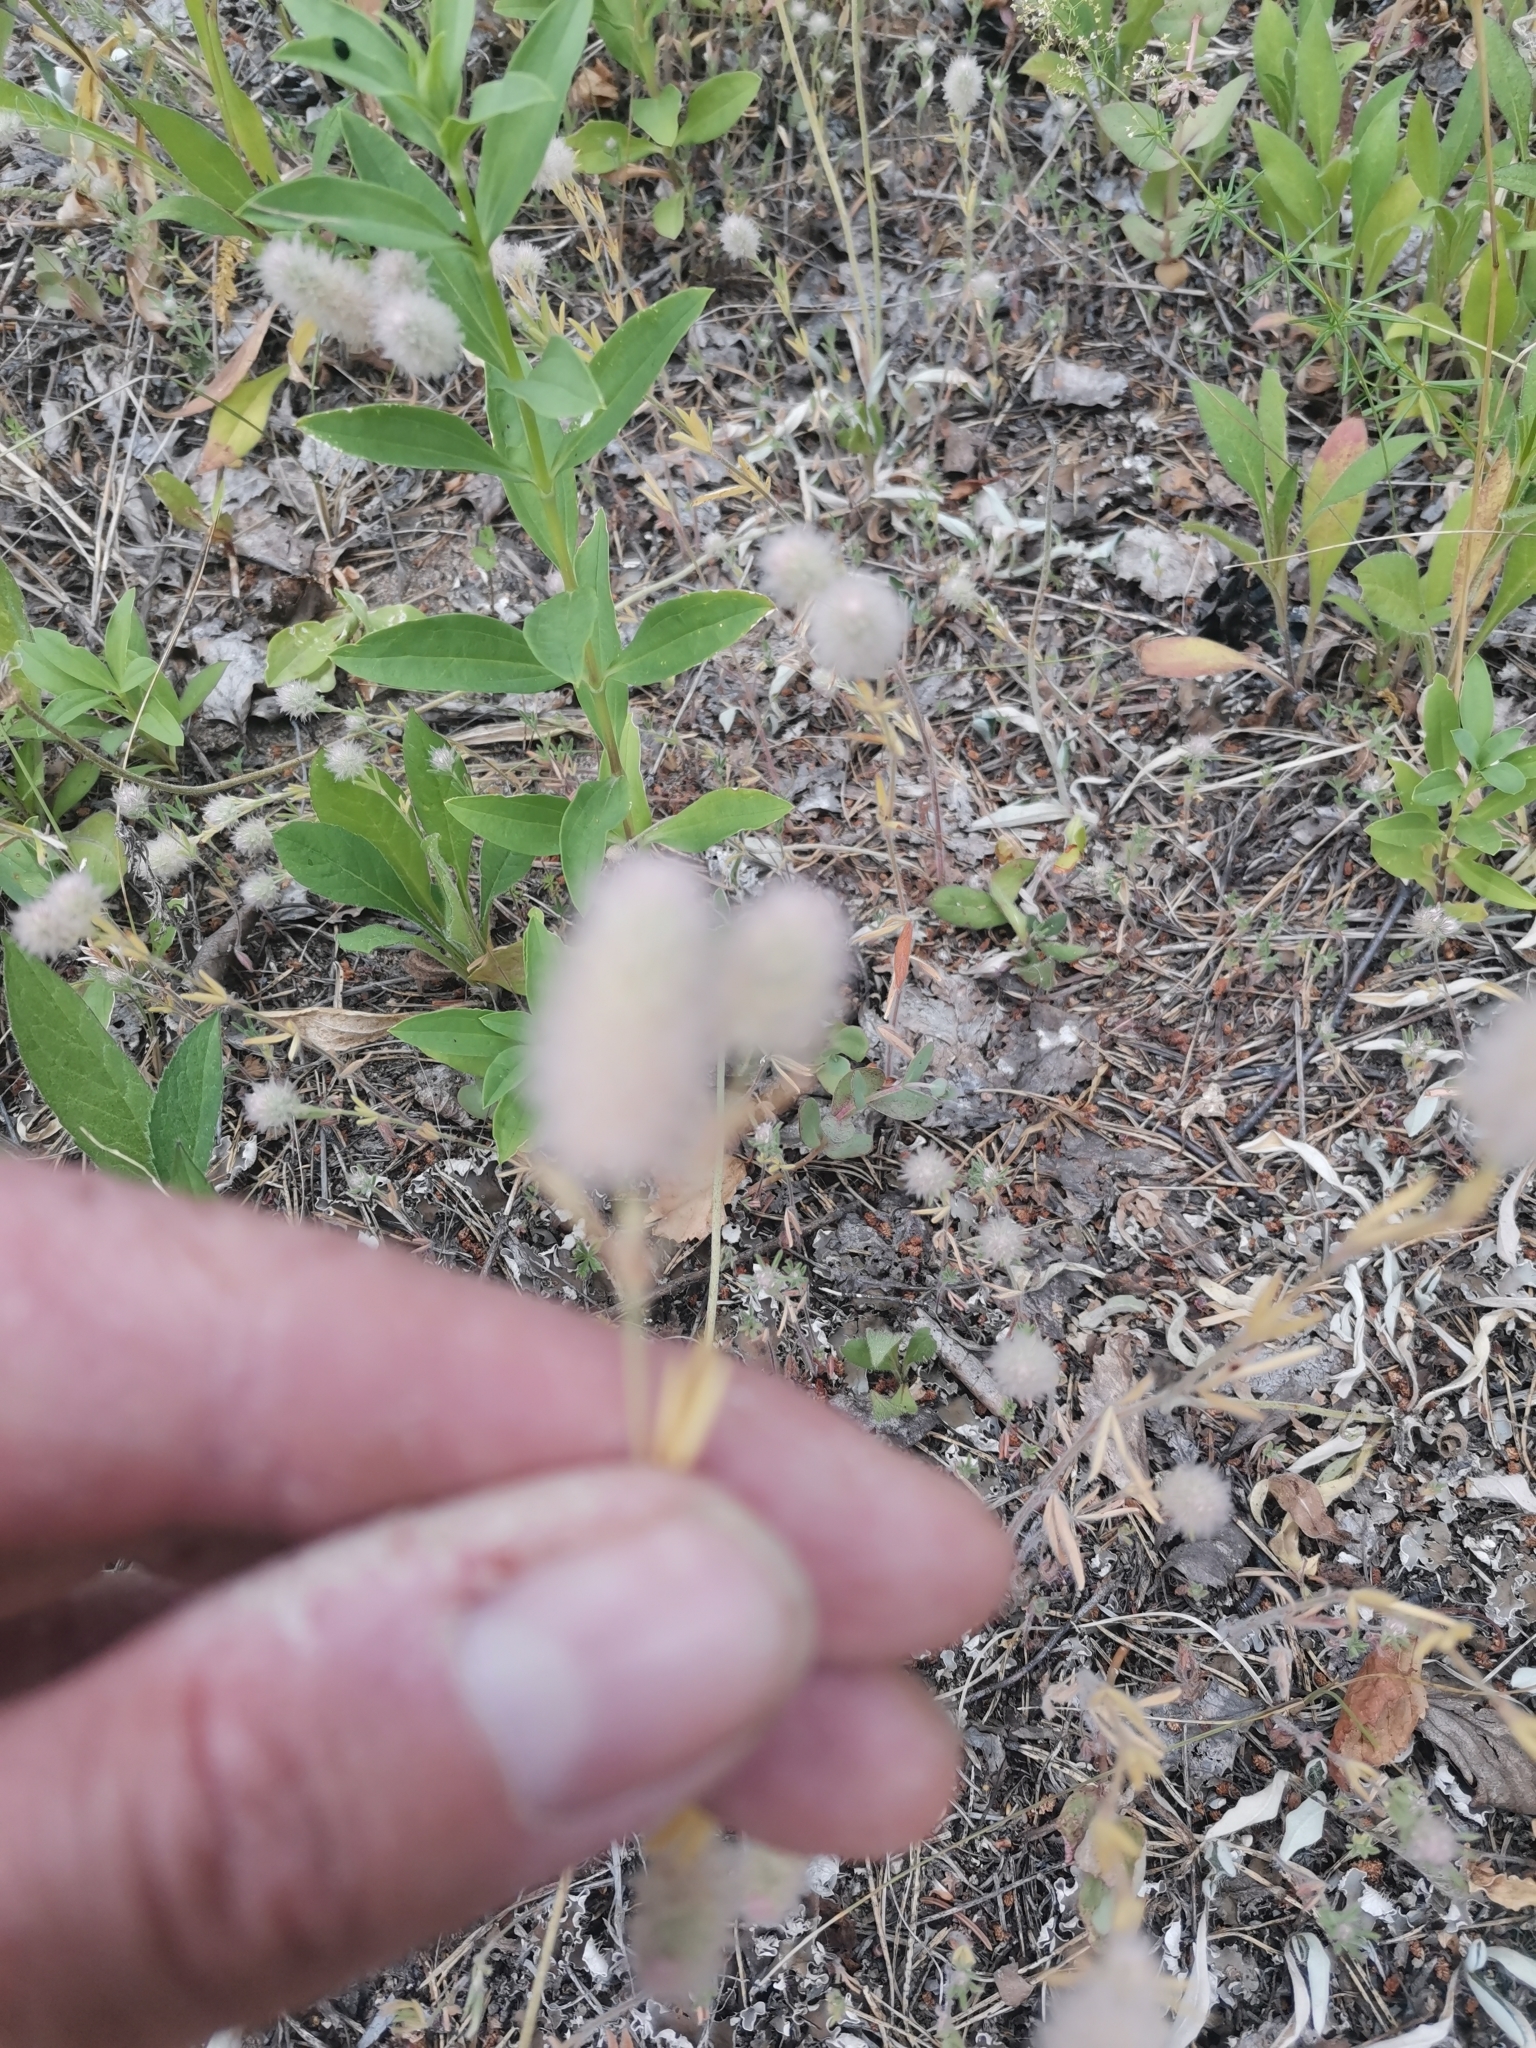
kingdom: Plantae
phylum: Tracheophyta
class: Magnoliopsida
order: Fabales
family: Fabaceae
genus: Trifolium
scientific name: Trifolium arvense
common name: Hare's-foot clover
